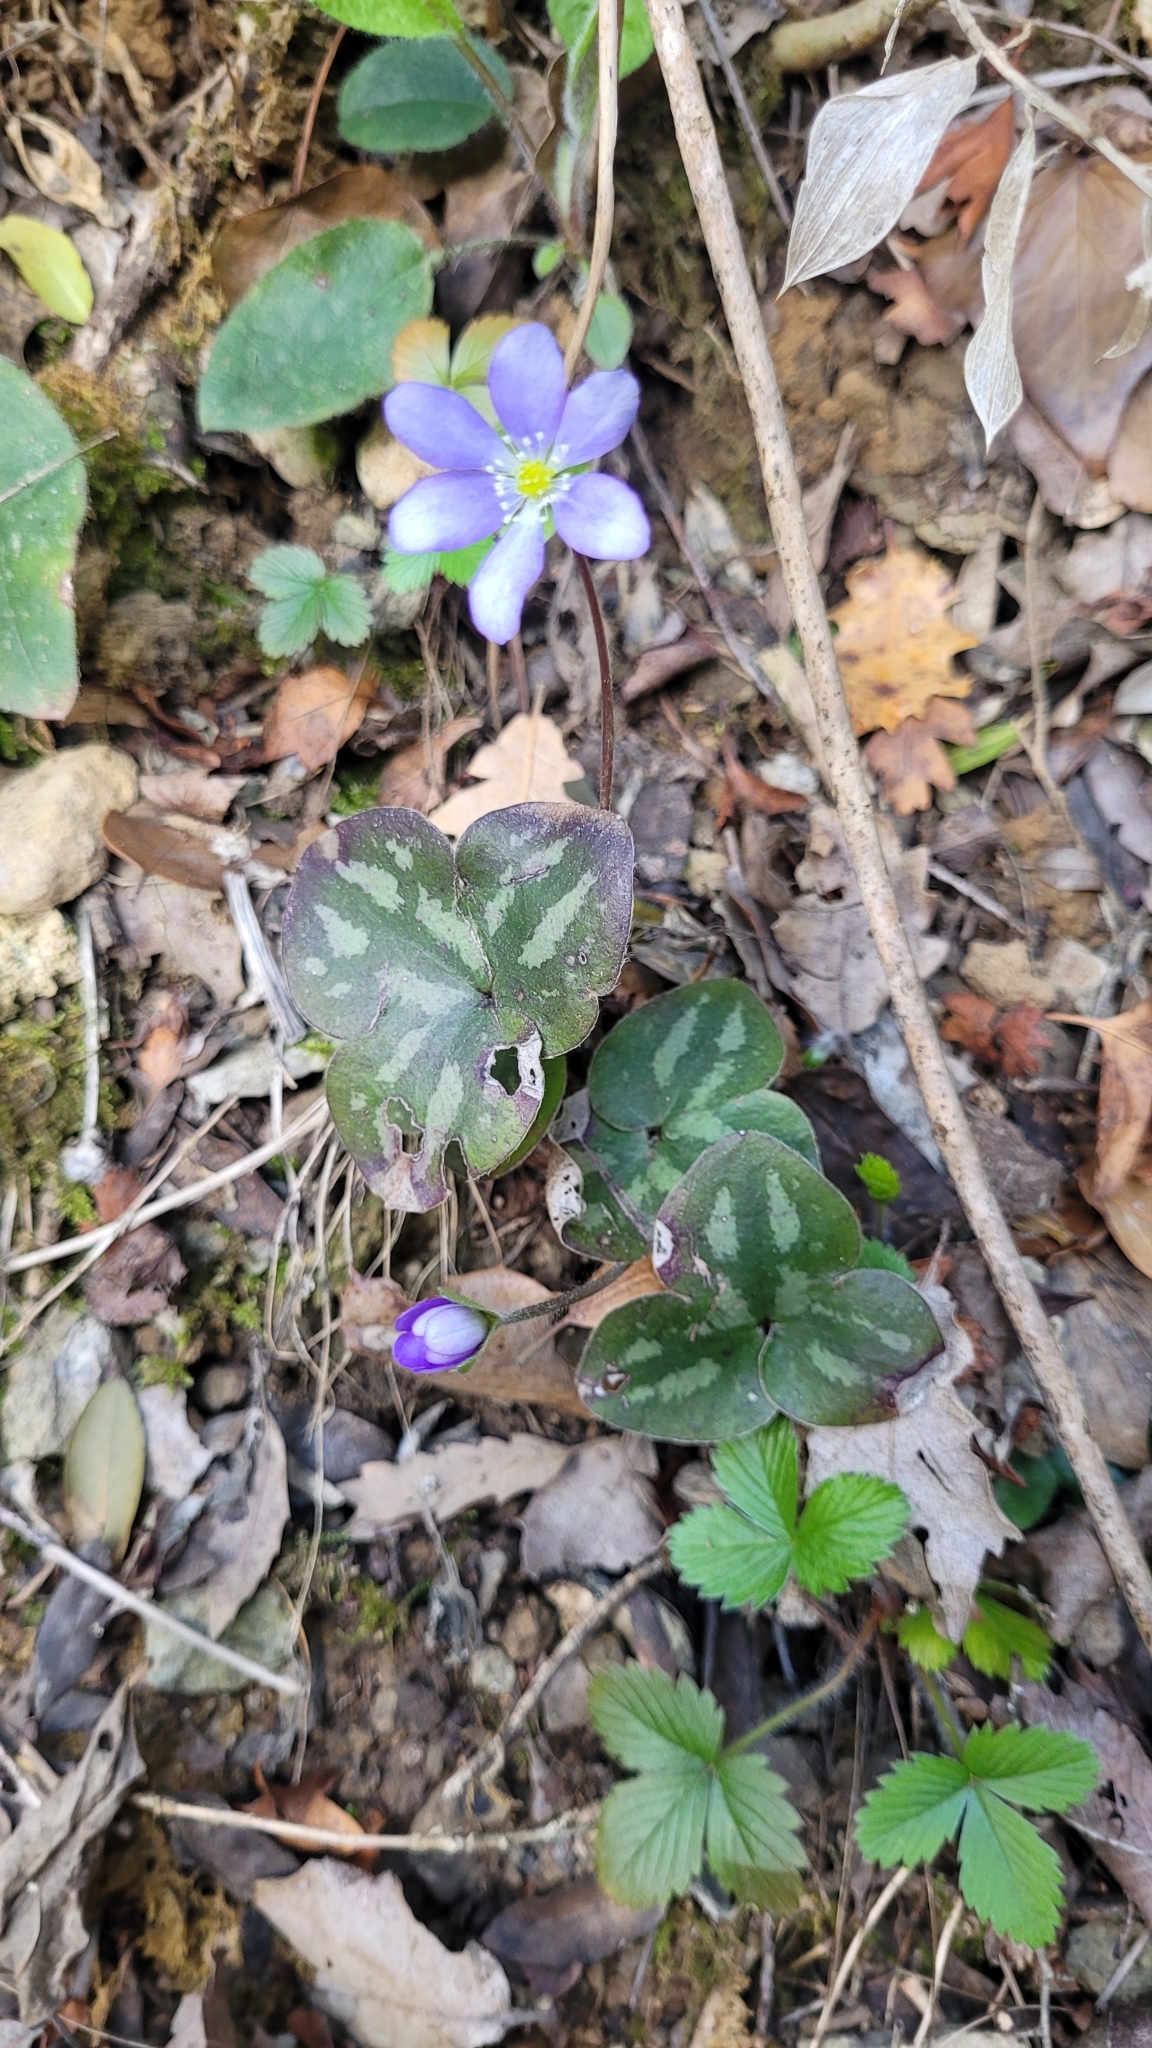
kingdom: Plantae
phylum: Tracheophyta
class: Magnoliopsida
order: Ranunculales
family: Ranunculaceae
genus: Hepatica
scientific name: Hepatica nobilis
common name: Liverleaf
